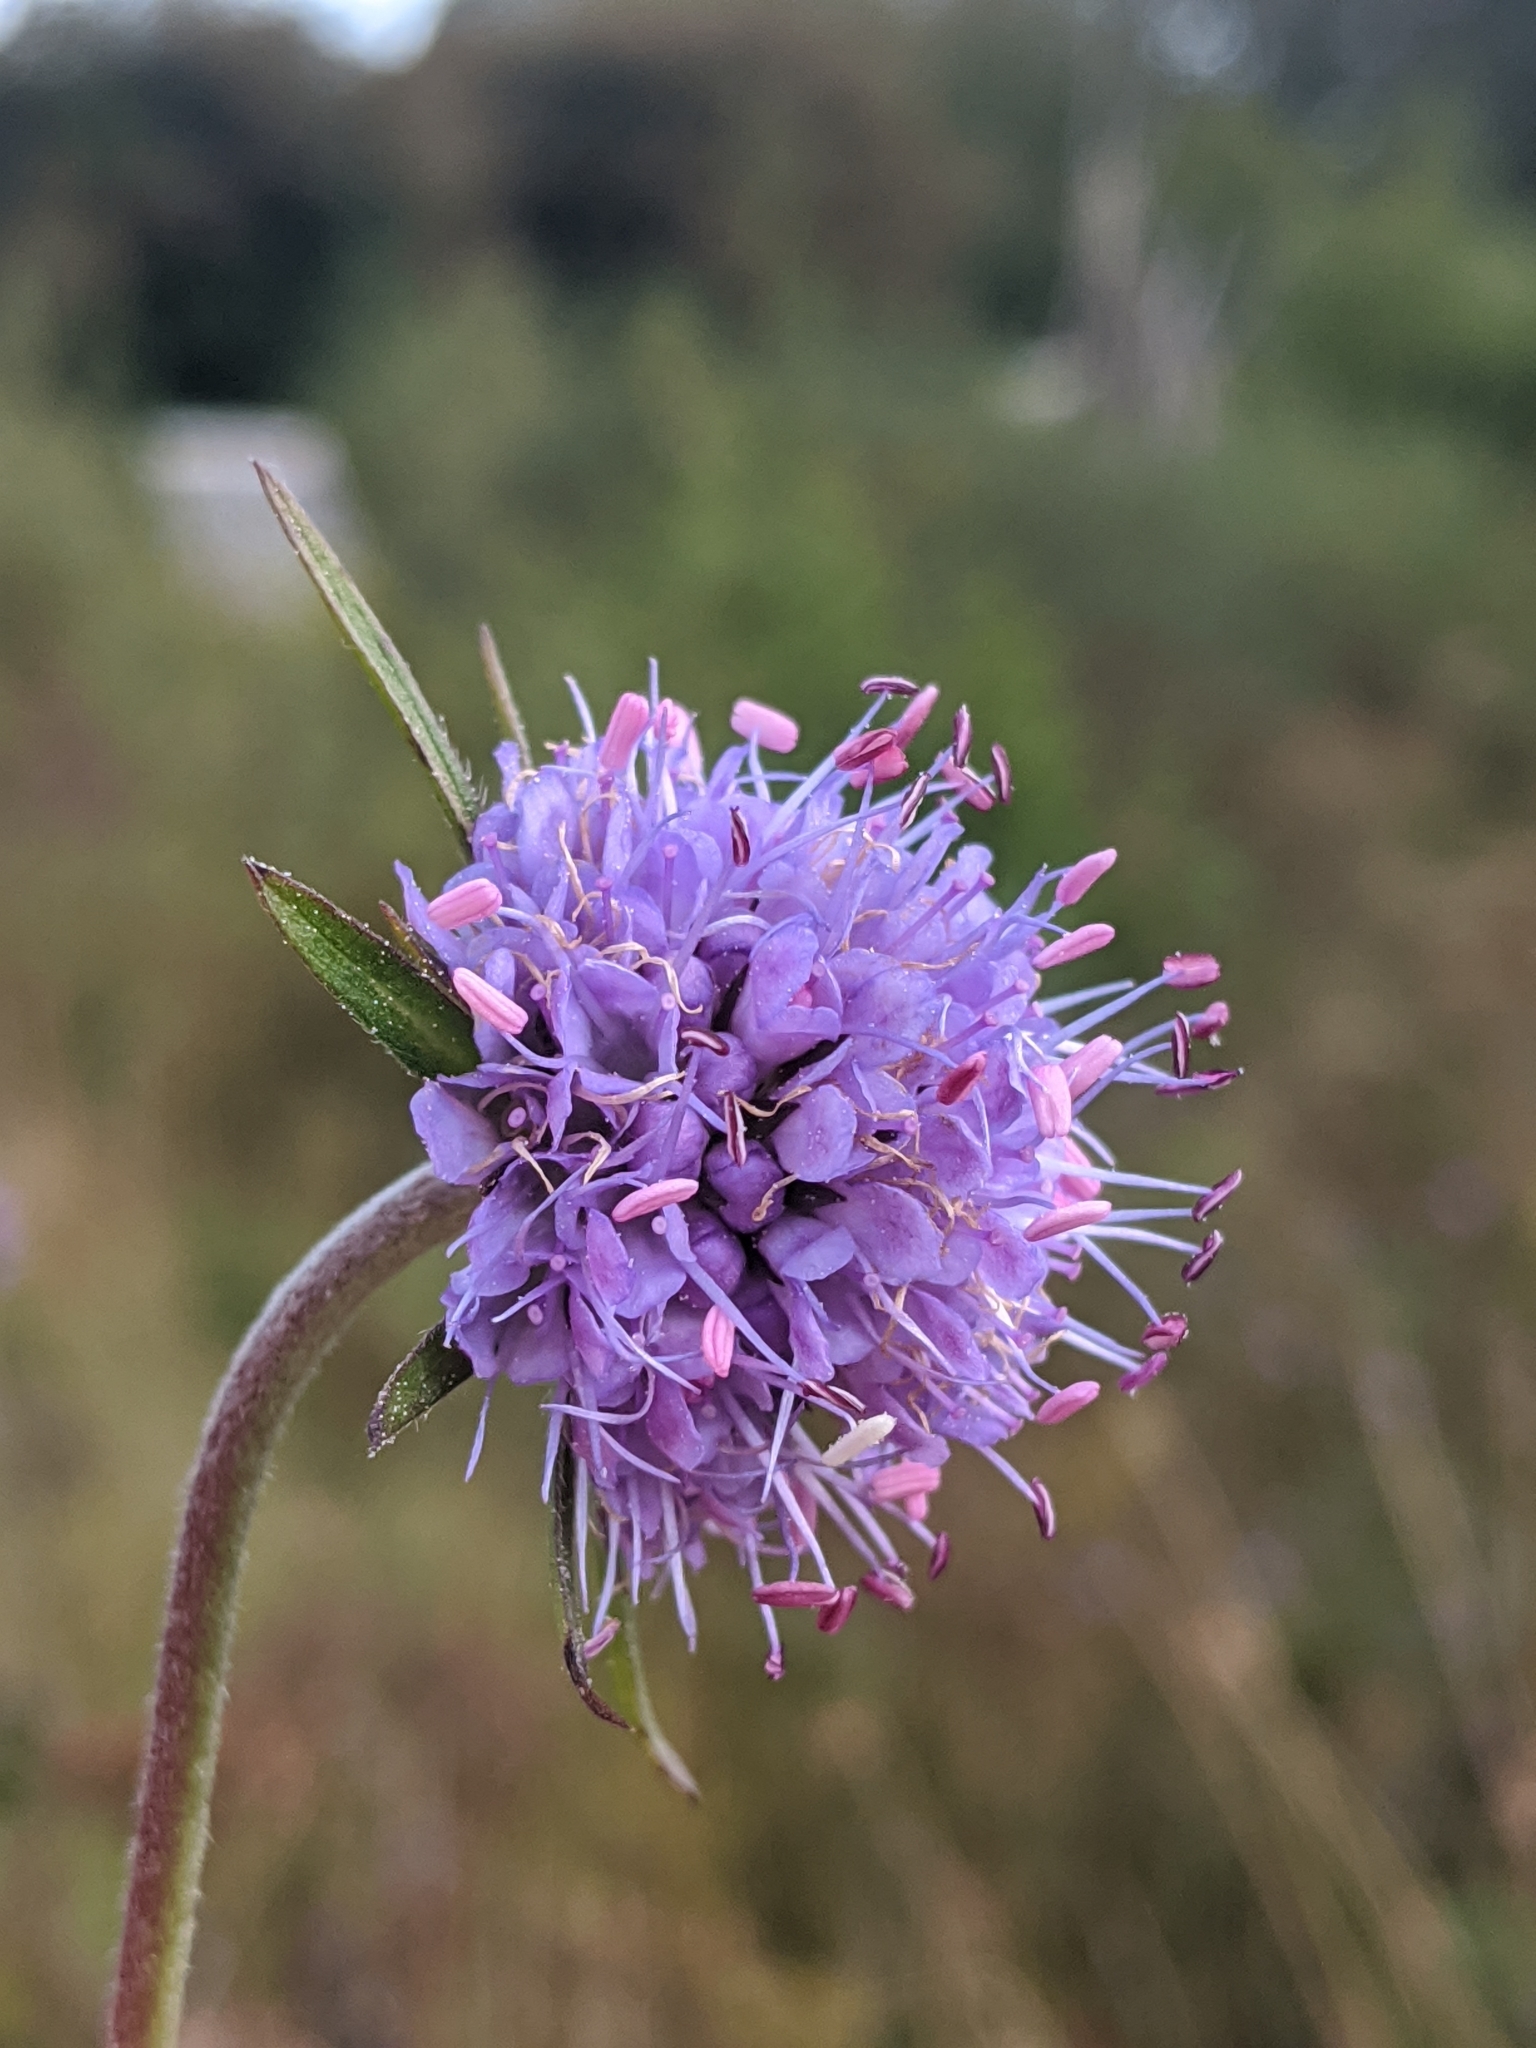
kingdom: Plantae
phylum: Tracheophyta
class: Magnoliopsida
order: Dipsacales
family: Caprifoliaceae
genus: Succisa
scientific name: Succisa pratensis
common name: Devil's-bit
